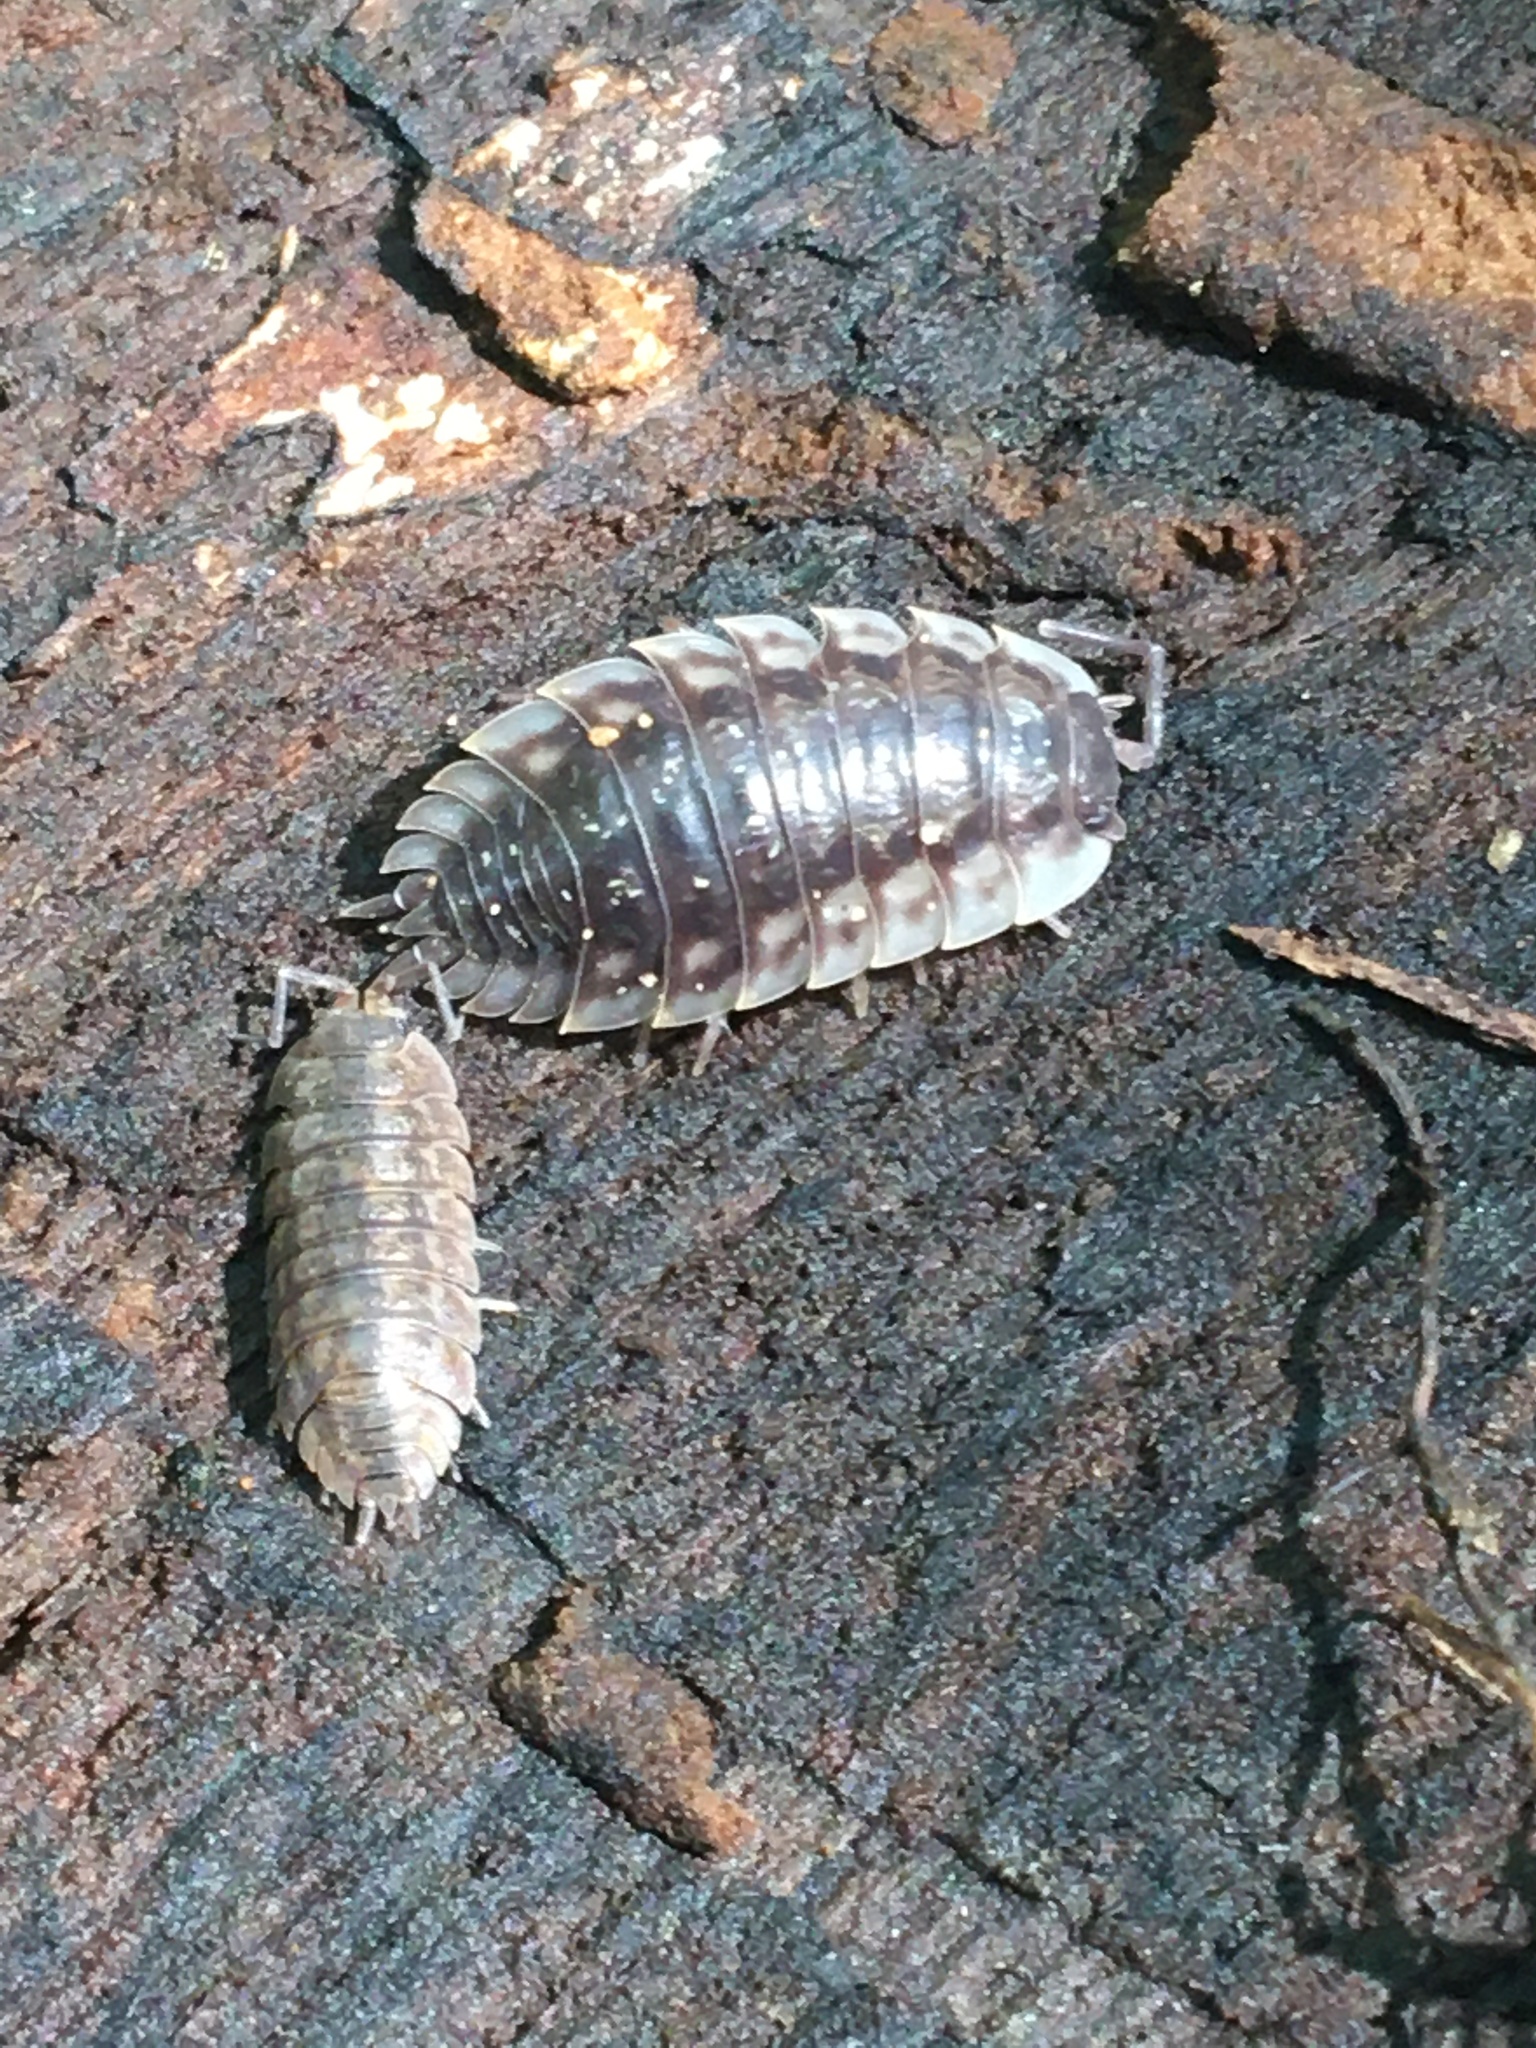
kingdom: Animalia
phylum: Arthropoda
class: Malacostraca
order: Isopoda
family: Oniscidae
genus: Oniscus
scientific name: Oniscus asellus
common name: Common shiny woodlouse
